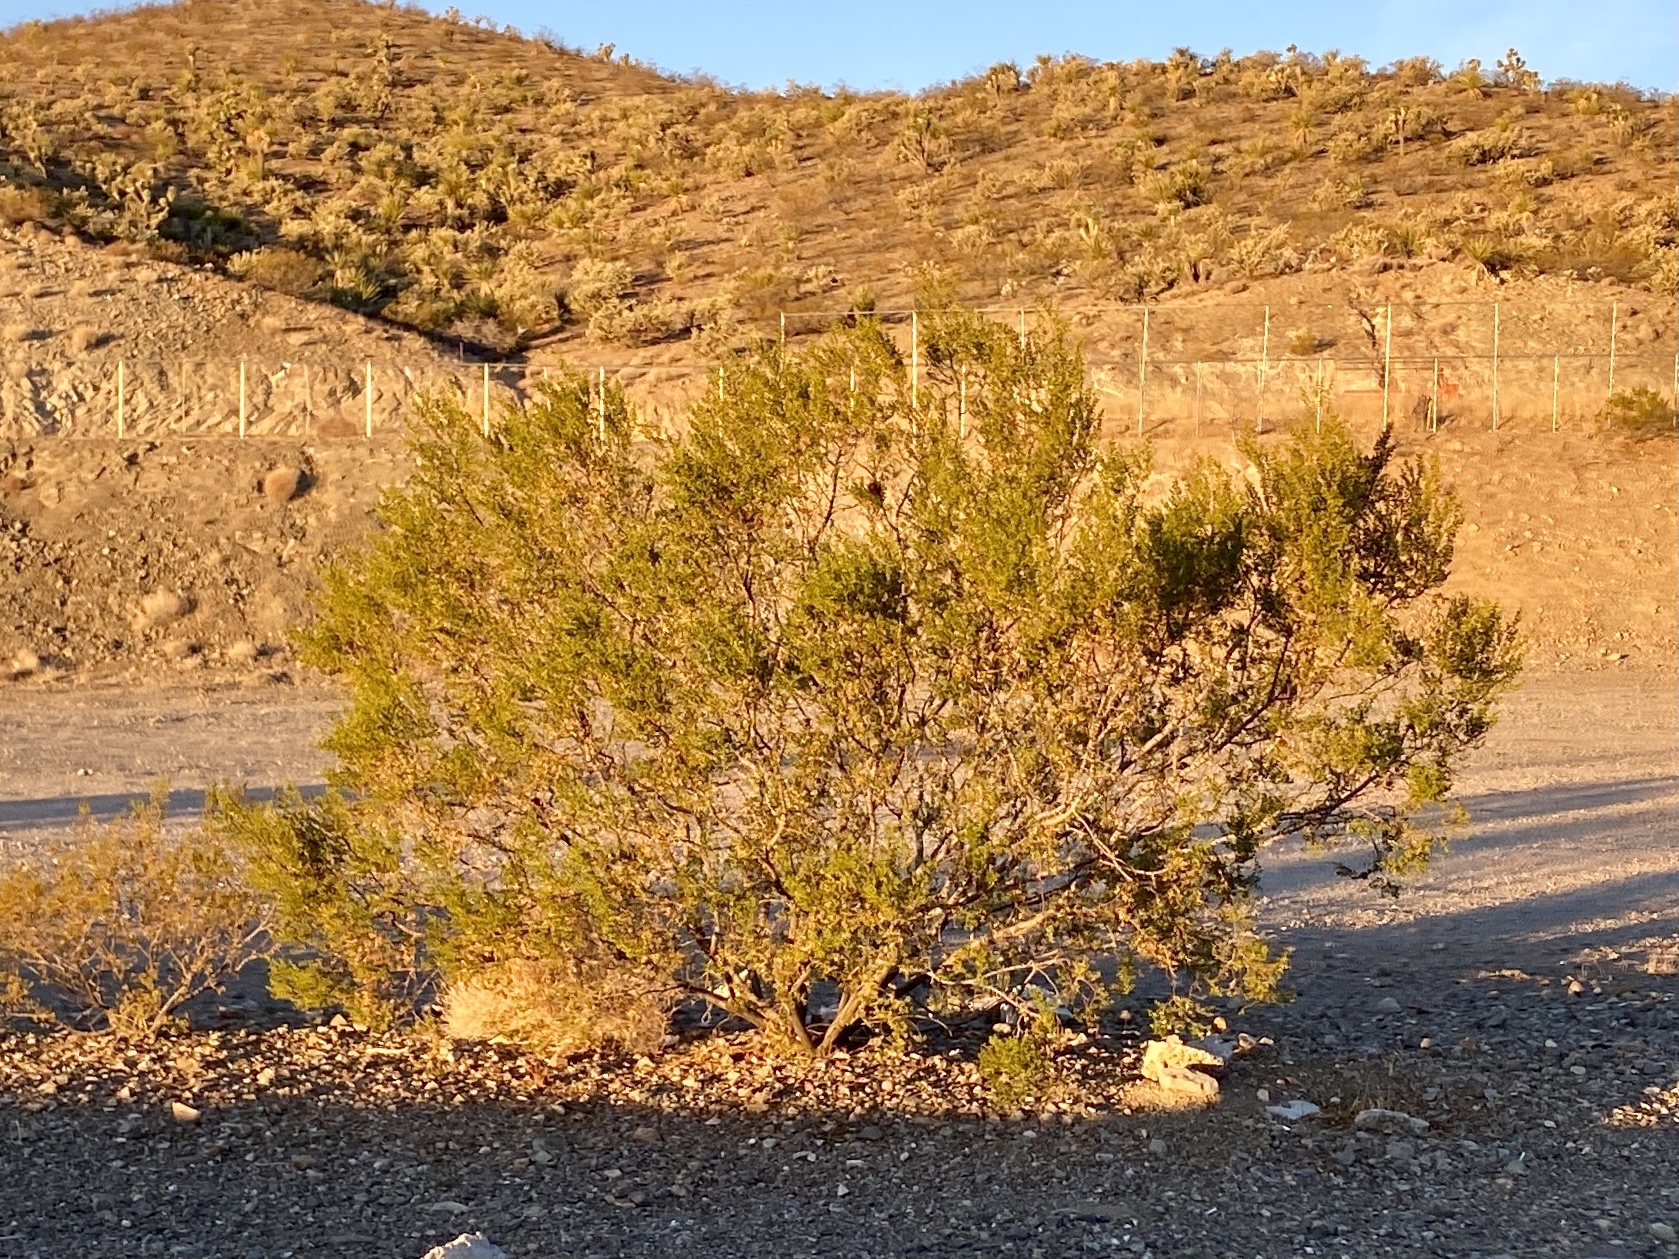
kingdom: Plantae
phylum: Tracheophyta
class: Magnoliopsida
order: Zygophyllales
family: Zygophyllaceae
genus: Larrea
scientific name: Larrea tridentata
